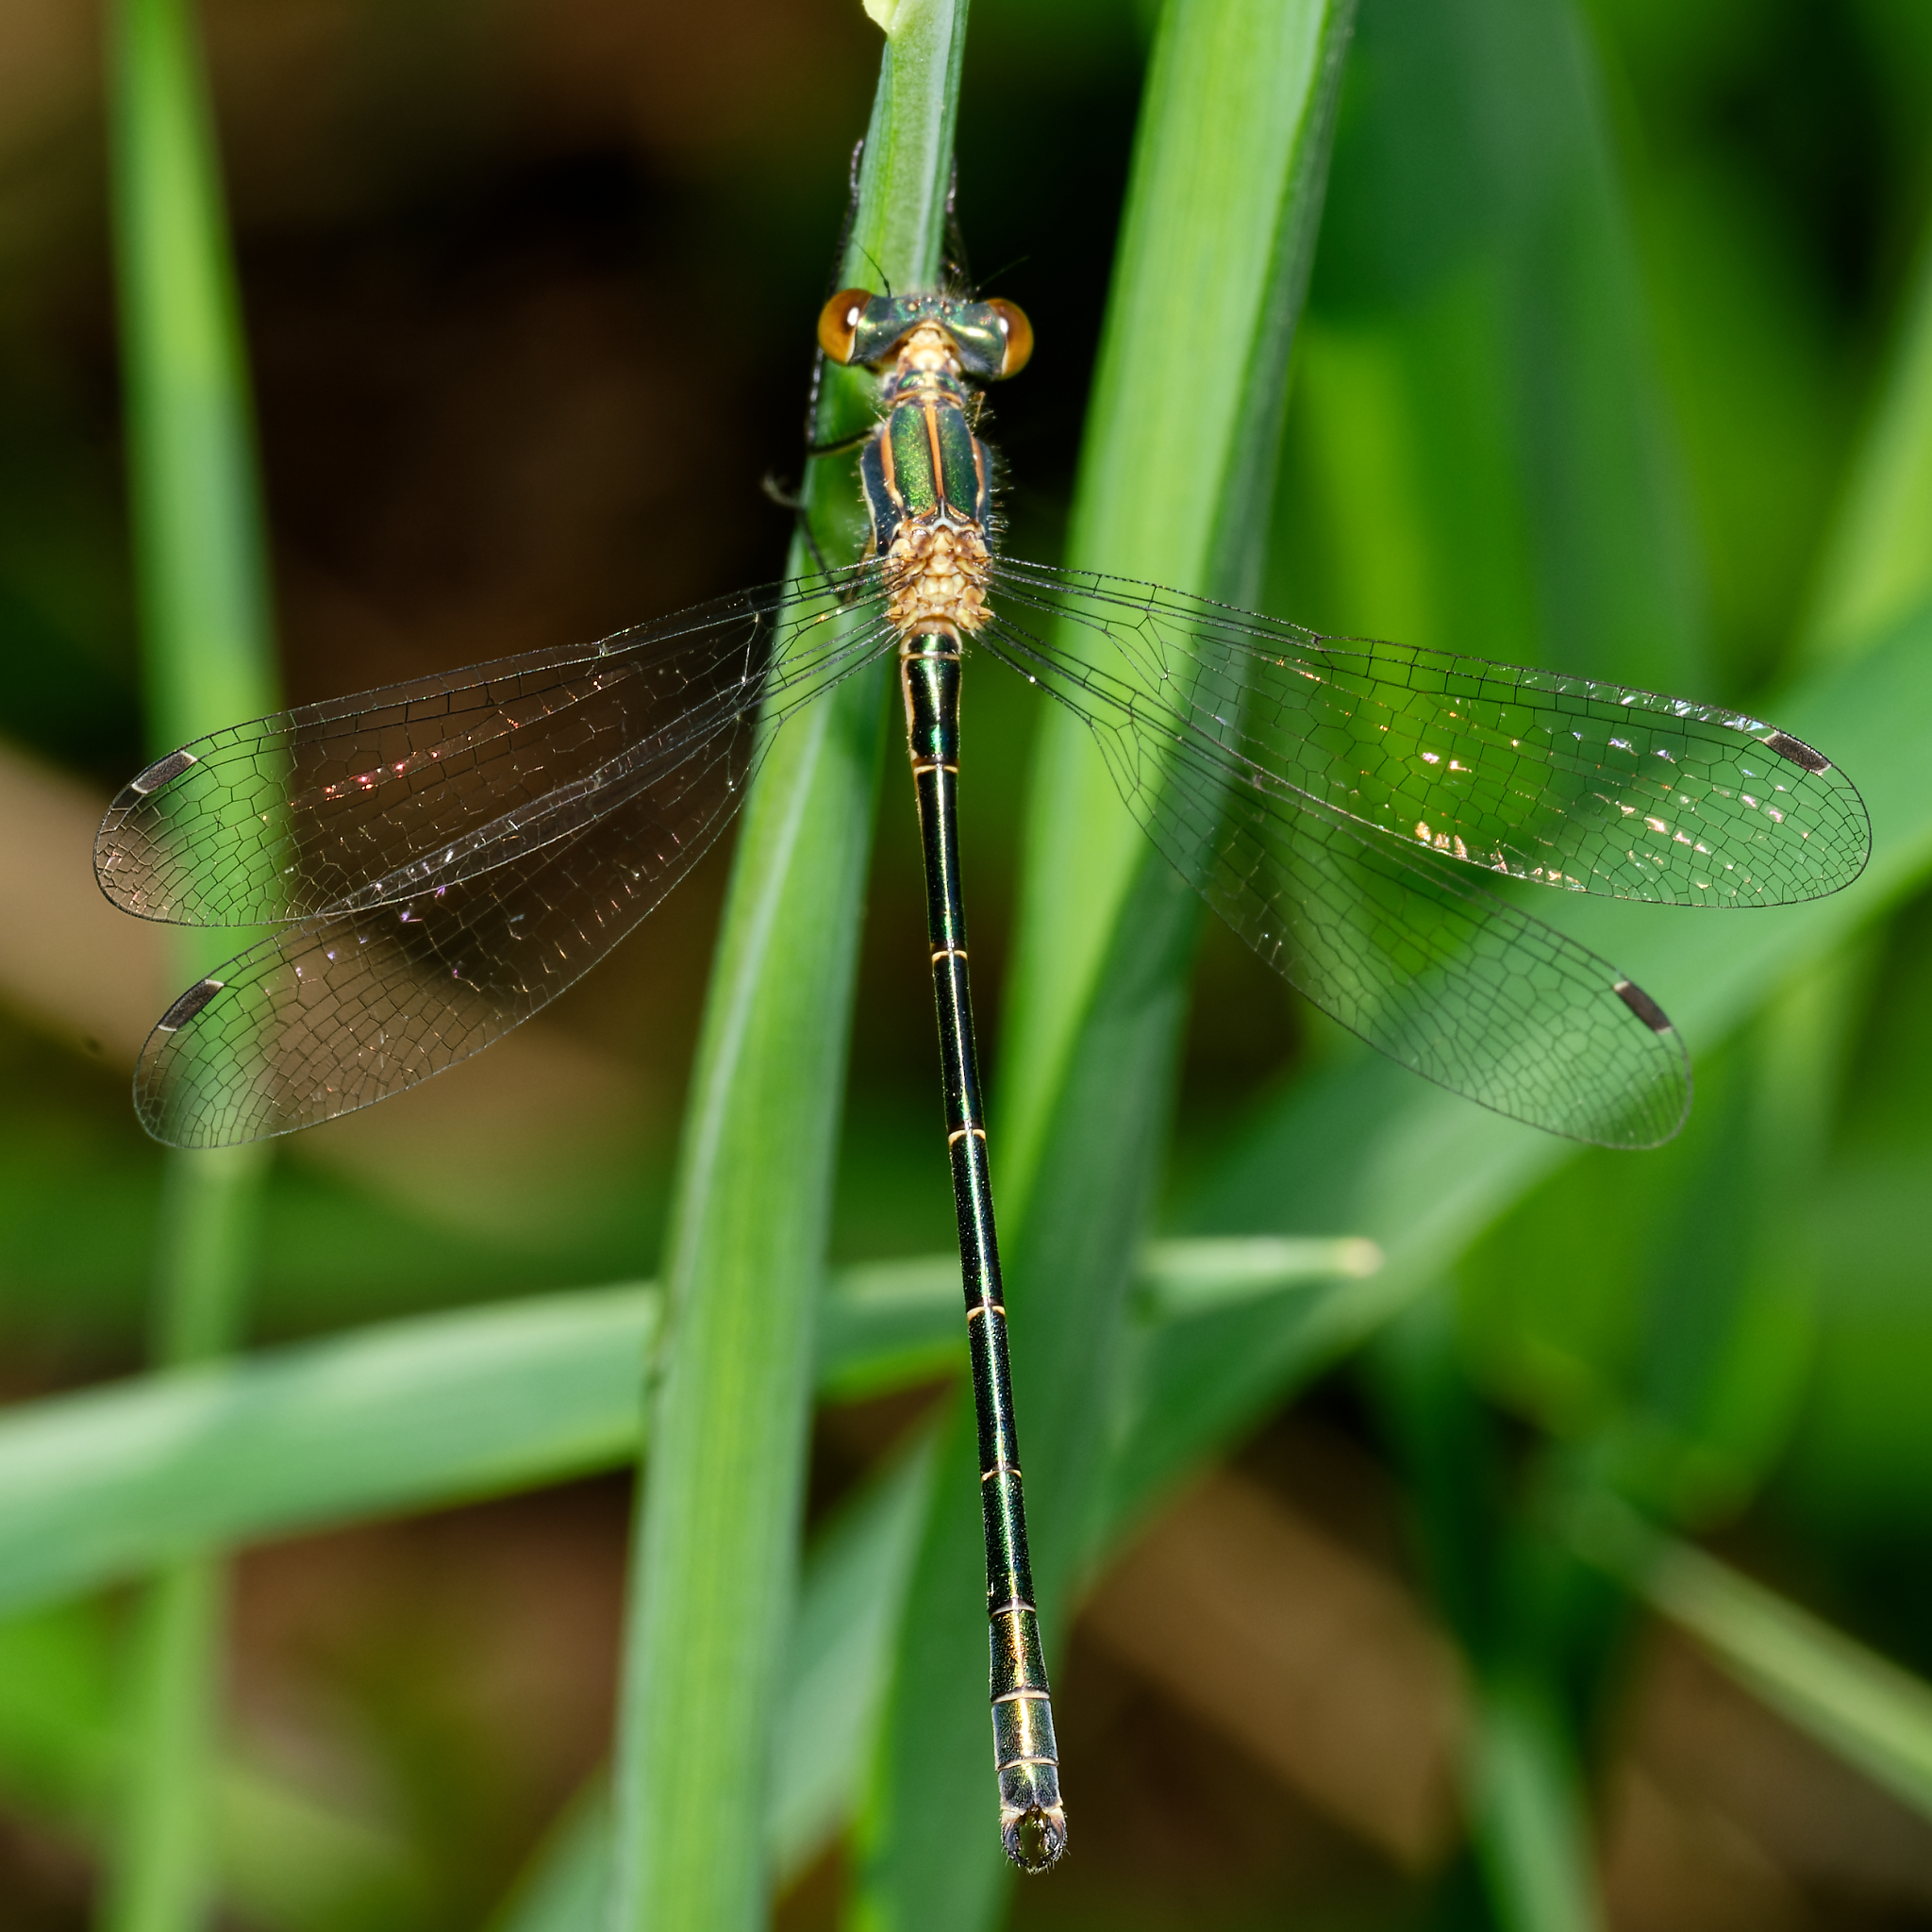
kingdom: Animalia
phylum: Arthropoda
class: Insecta
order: Odonata
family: Lestidae
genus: Lestes
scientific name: Lestes dryas
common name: Scarce emerald damselfly
